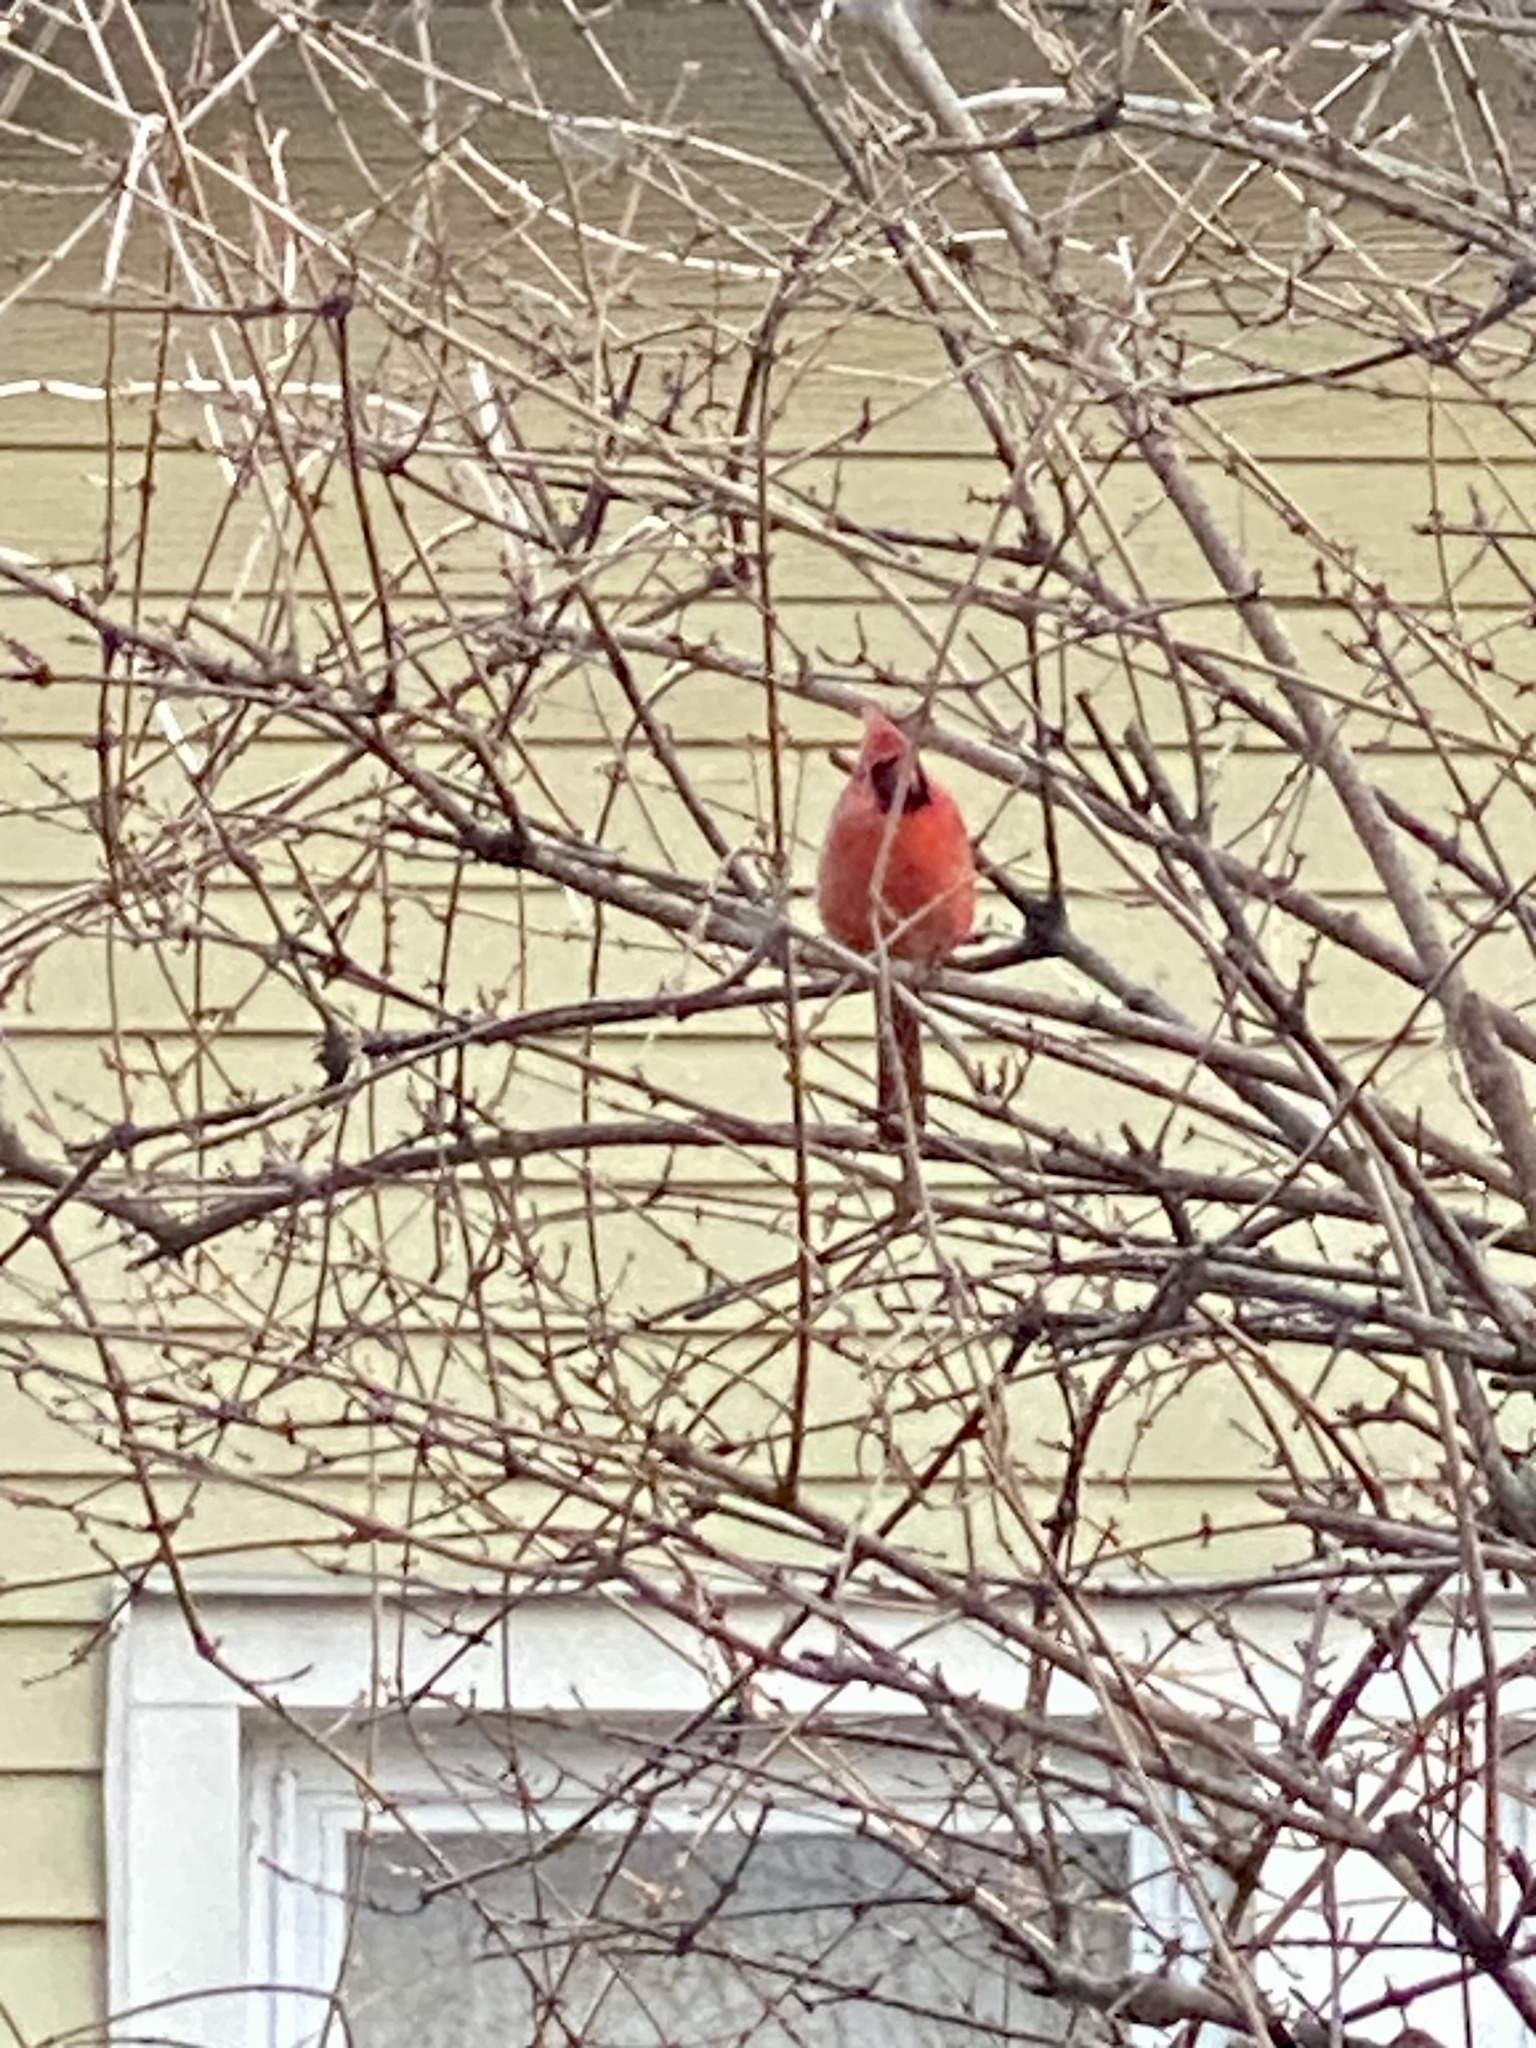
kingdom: Animalia
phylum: Chordata
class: Aves
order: Passeriformes
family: Cardinalidae
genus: Cardinalis
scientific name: Cardinalis cardinalis
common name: Northern cardinal
